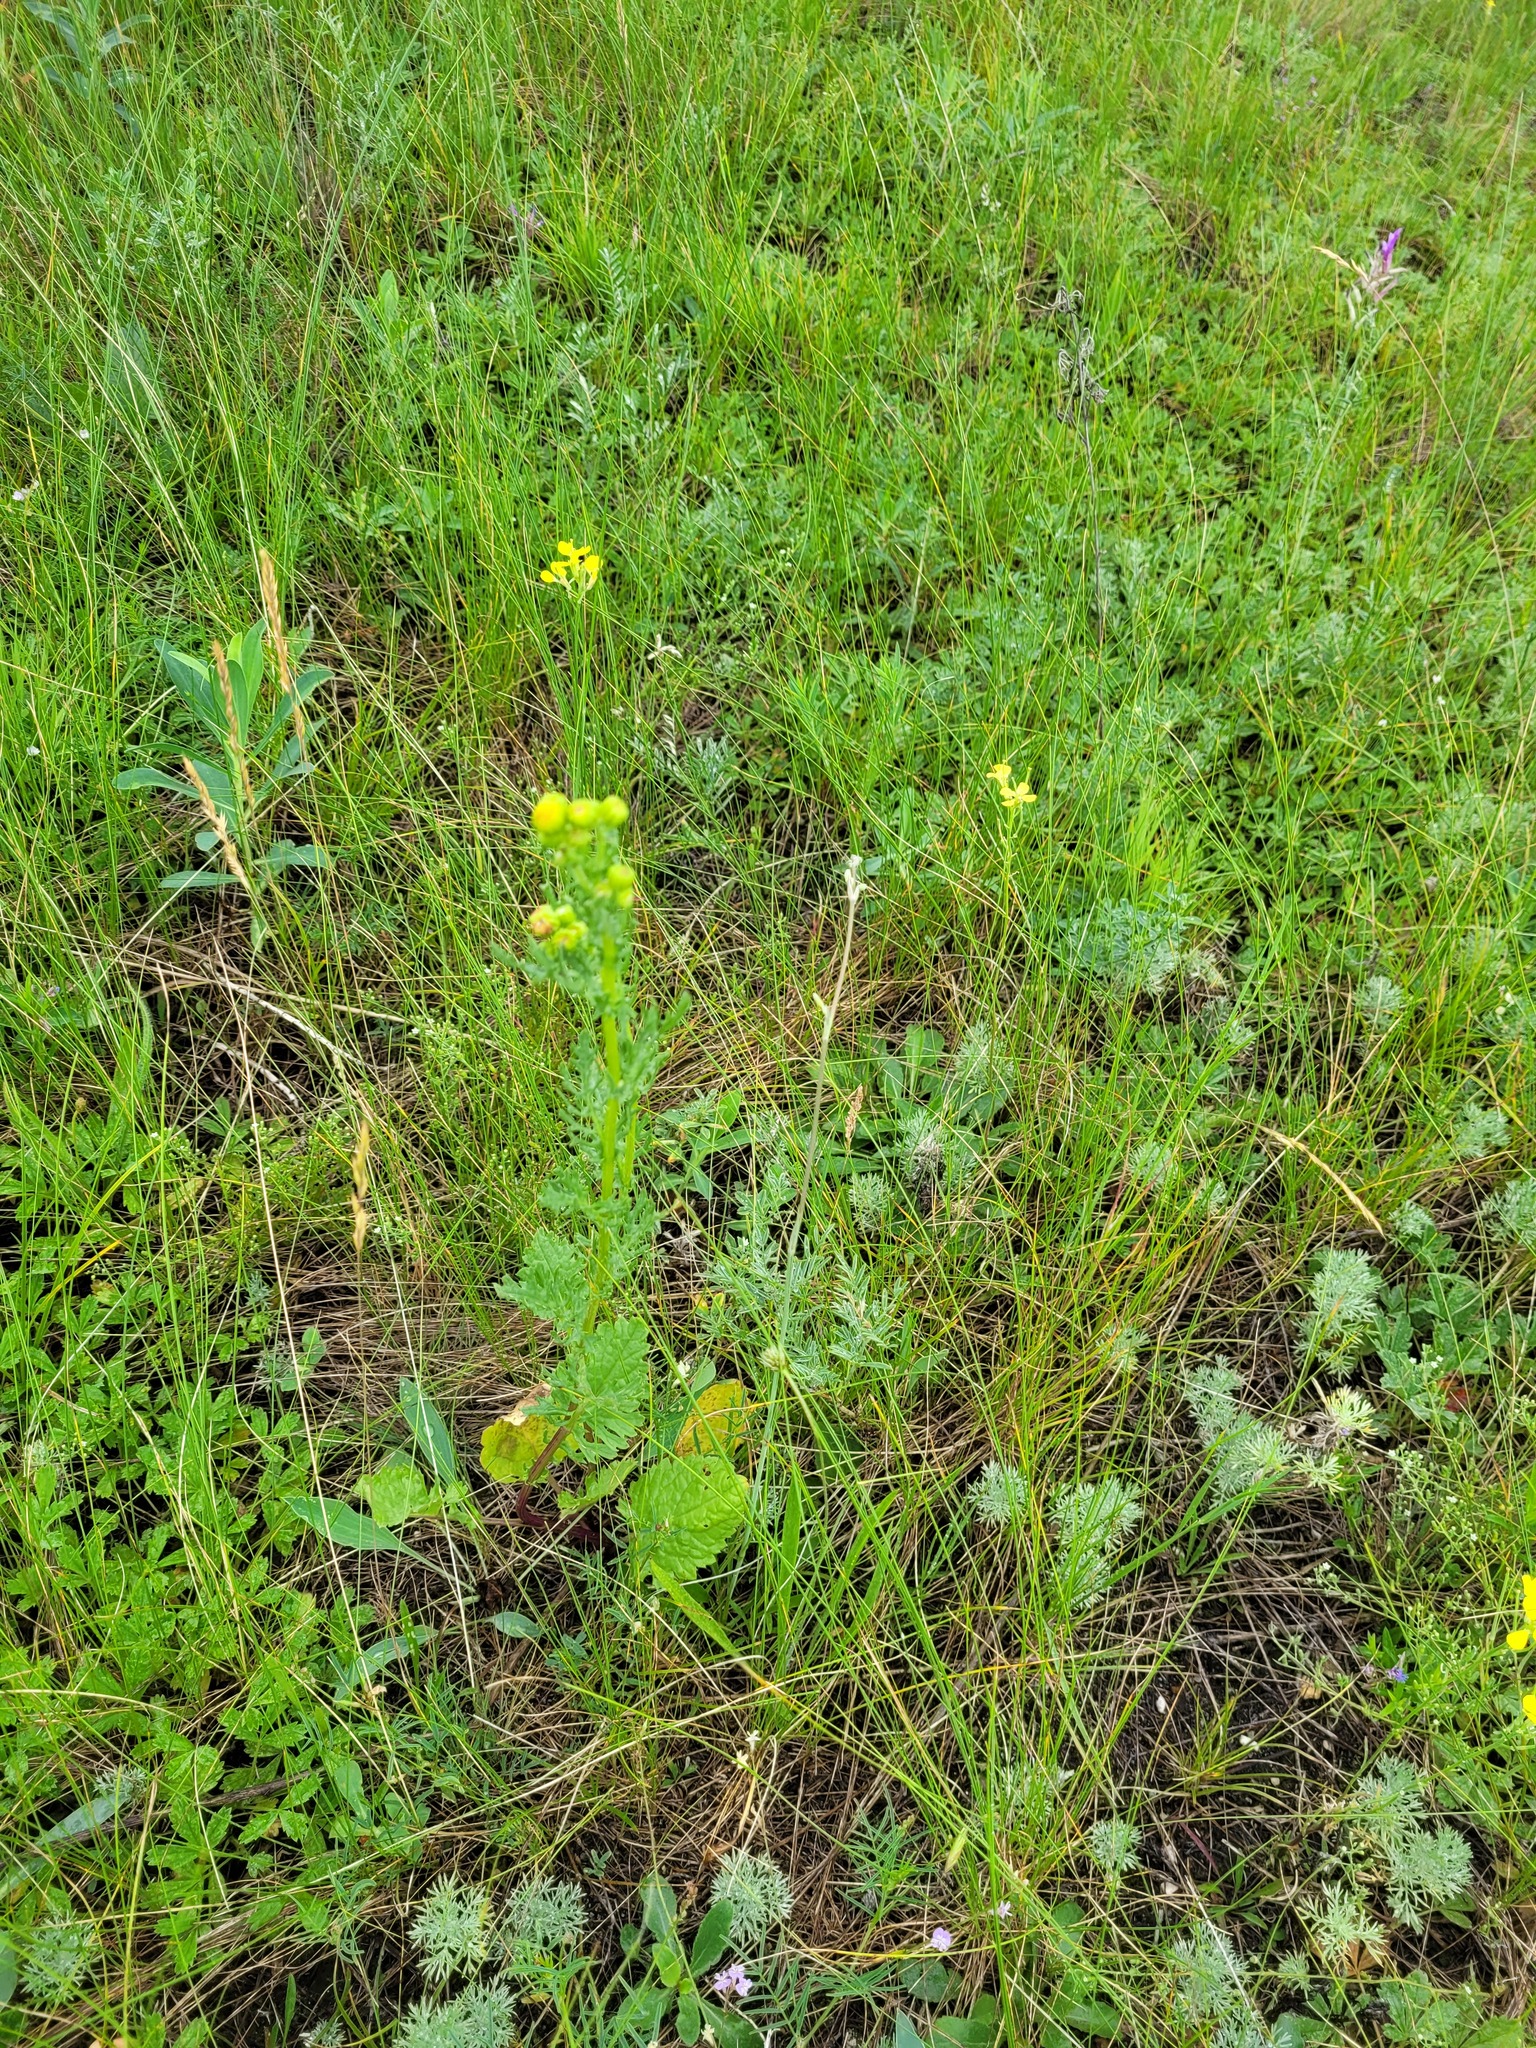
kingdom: Plantae
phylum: Tracheophyta
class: Magnoliopsida
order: Asterales
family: Asteraceae
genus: Jacobaea
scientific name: Jacobaea vulgaris
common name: Stinking willie
